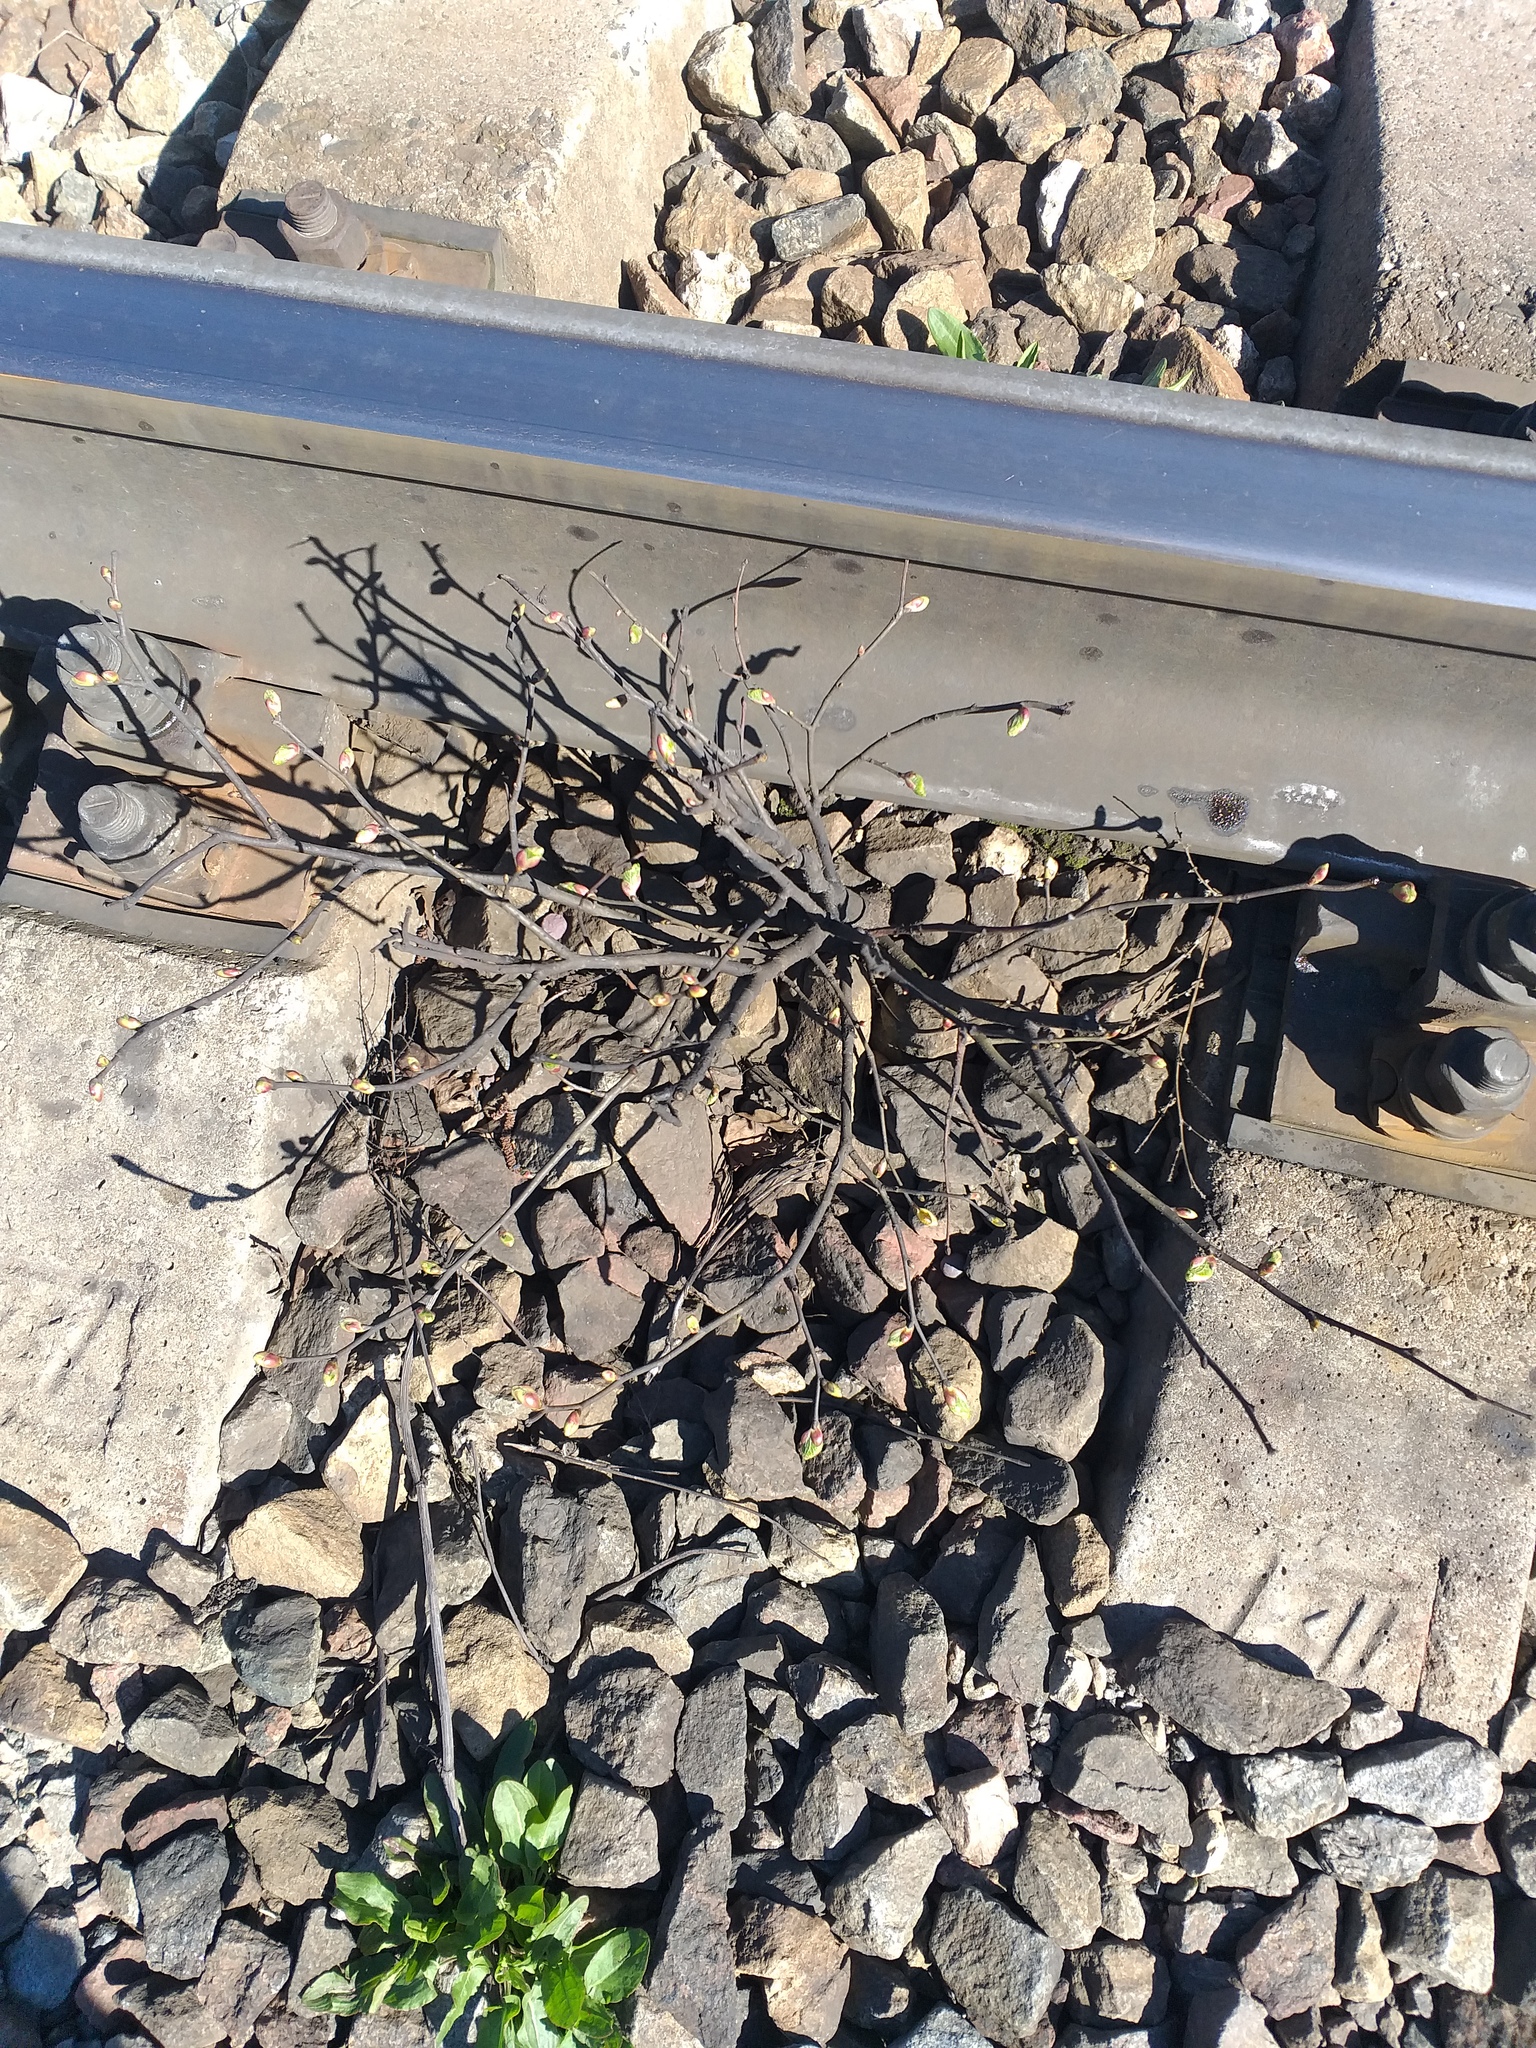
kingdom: Plantae
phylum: Tracheophyta
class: Magnoliopsida
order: Malvales
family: Malvaceae
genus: Tilia
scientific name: Tilia cordata
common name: Small-leaved lime
